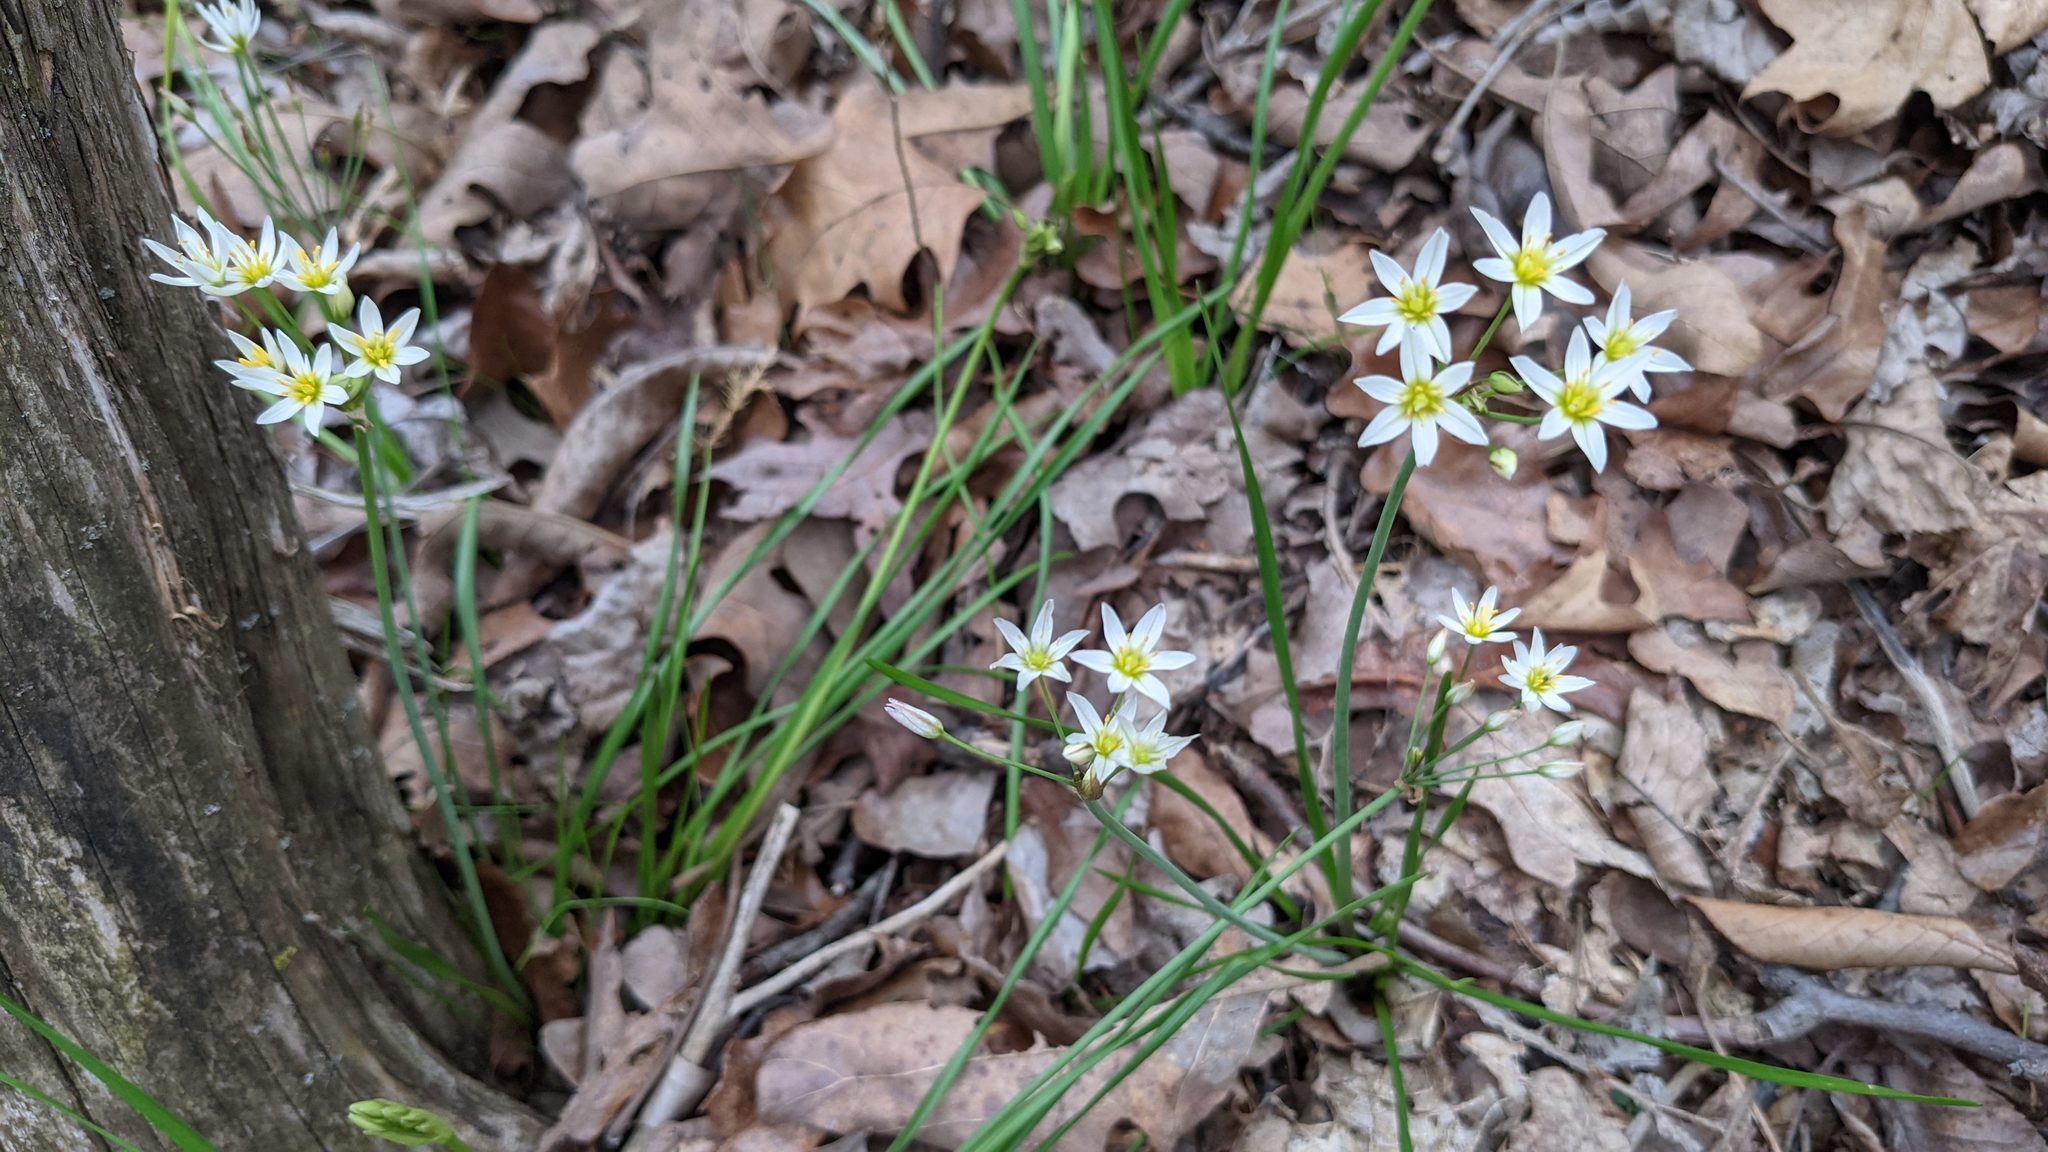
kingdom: Plantae
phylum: Tracheophyta
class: Liliopsida
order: Asparagales
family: Amaryllidaceae
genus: Nothoscordum
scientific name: Nothoscordum bivalve
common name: Crow-poison
